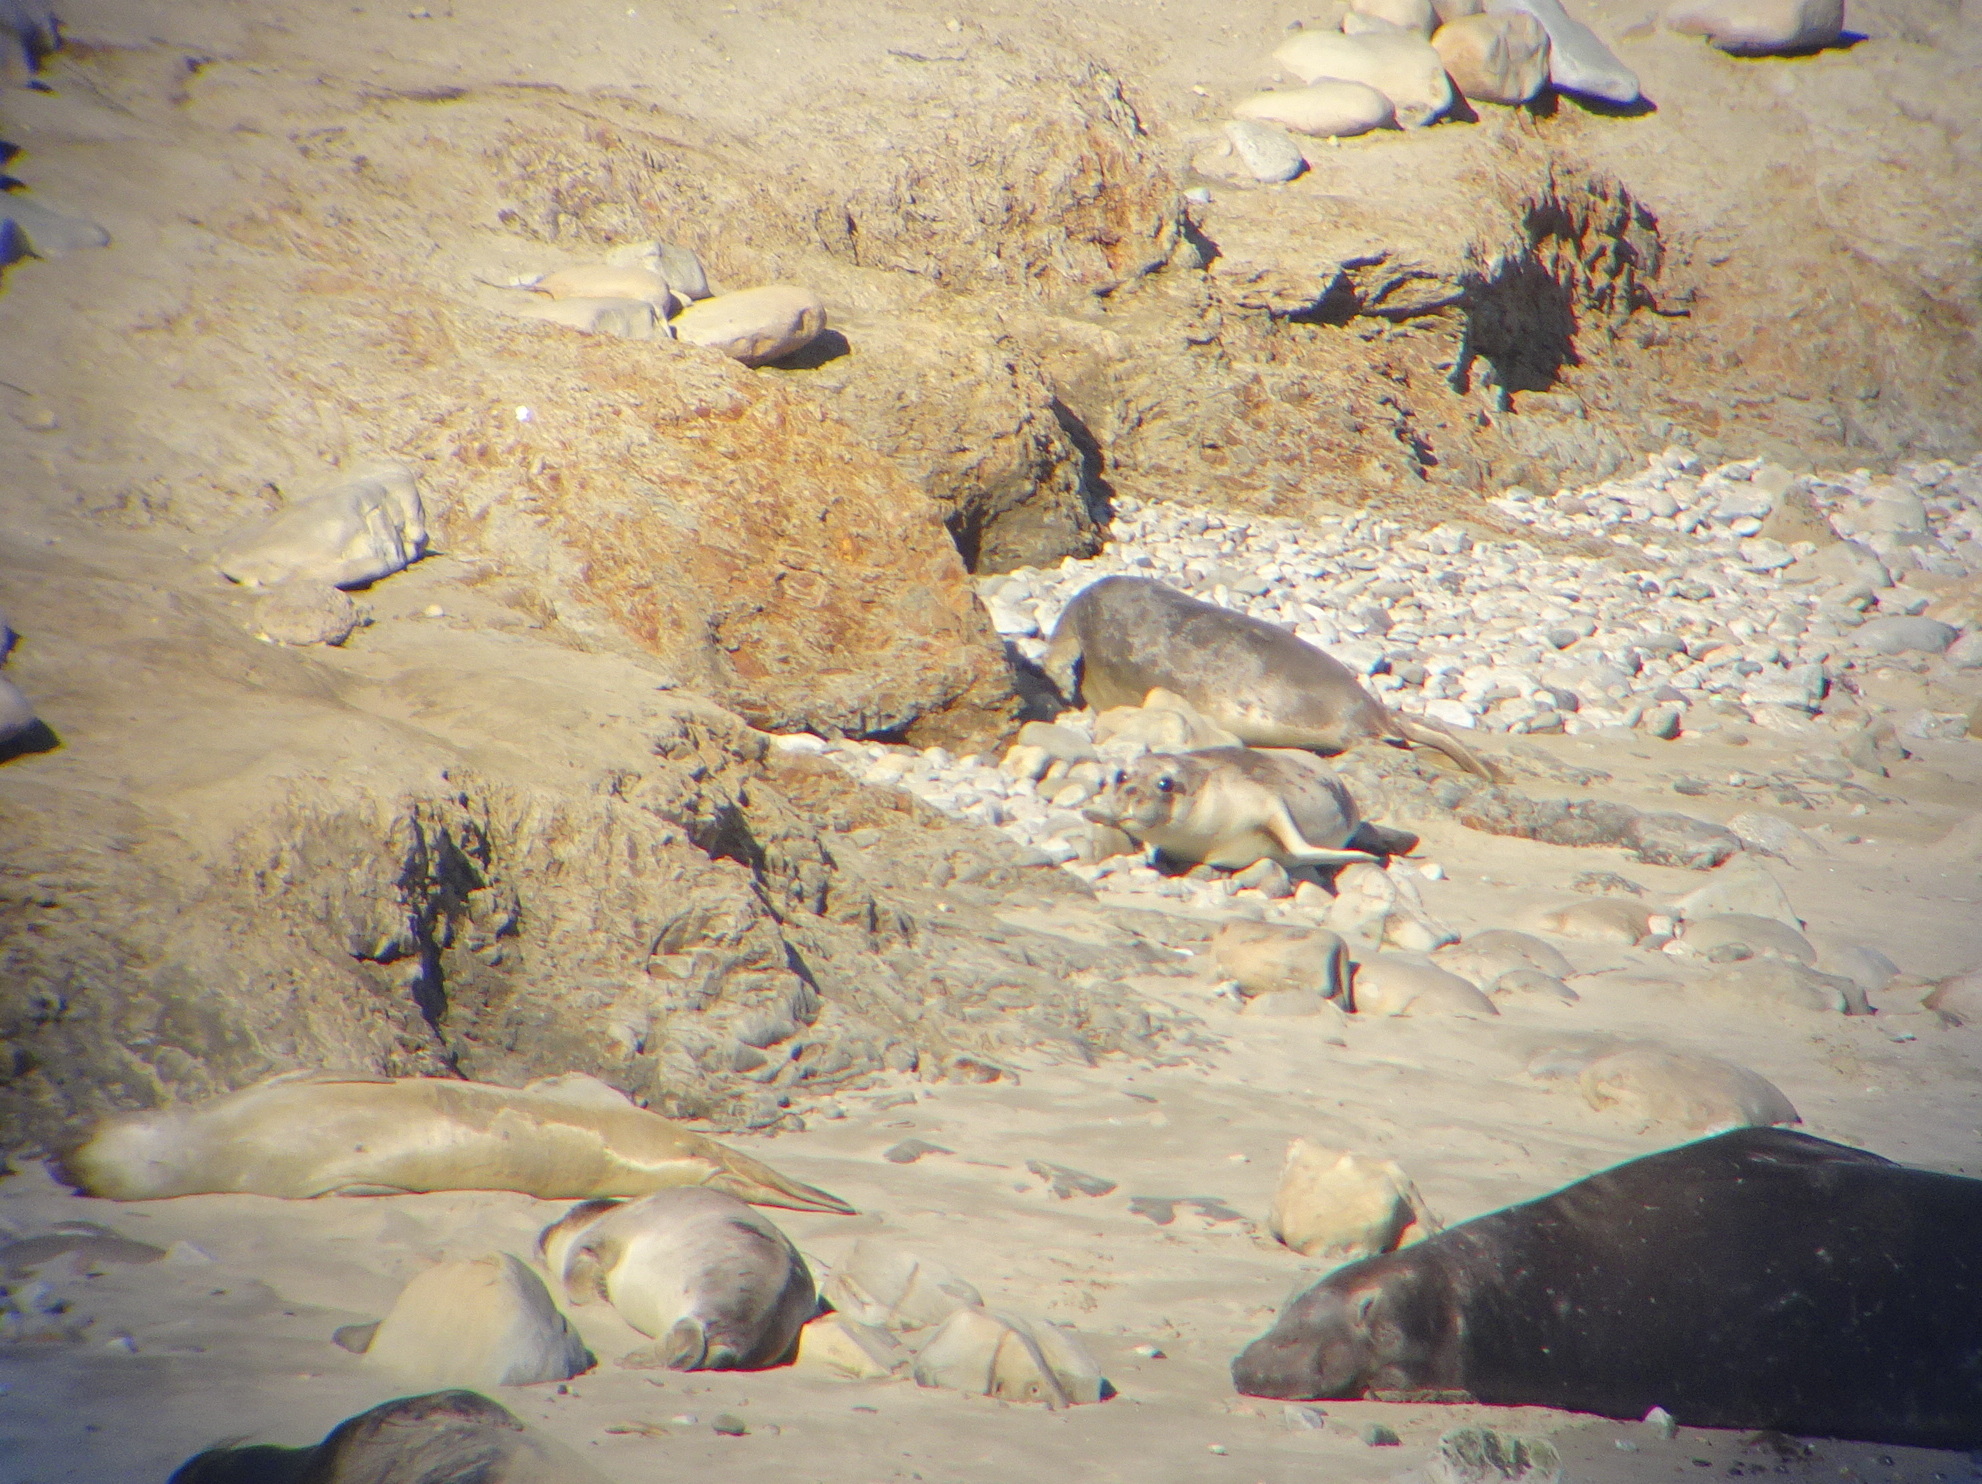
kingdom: Animalia
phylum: Chordata
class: Mammalia
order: Carnivora
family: Phocidae
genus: Mirounga
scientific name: Mirounga angustirostris
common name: Northern elephant seal
